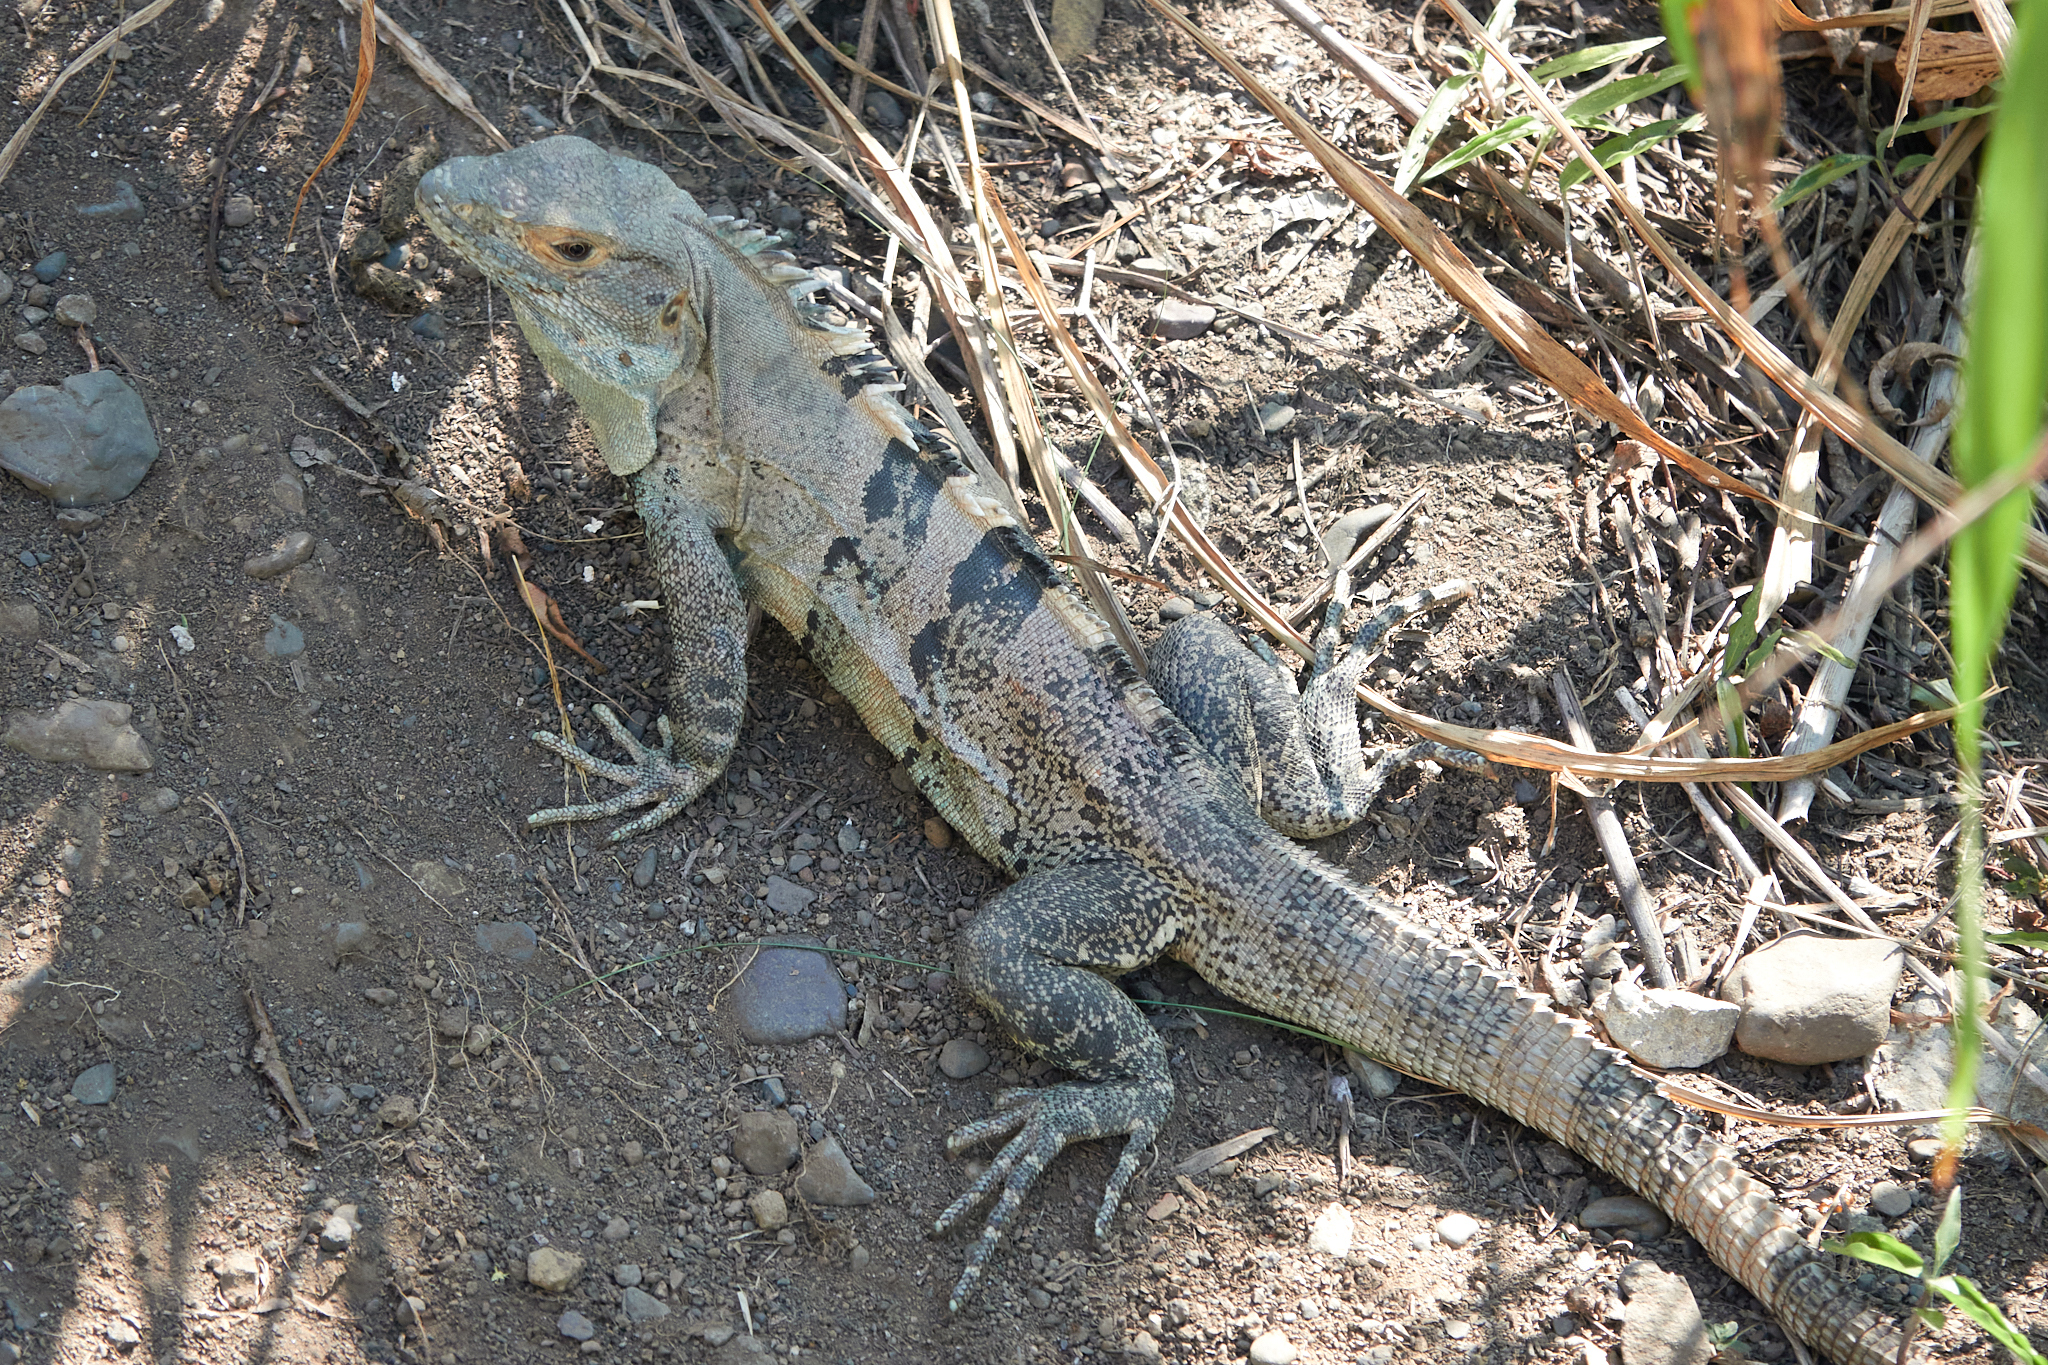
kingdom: Animalia
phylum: Chordata
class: Squamata
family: Iguanidae
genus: Ctenosaura
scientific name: Ctenosaura similis
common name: Black spiny-tailed iguana
